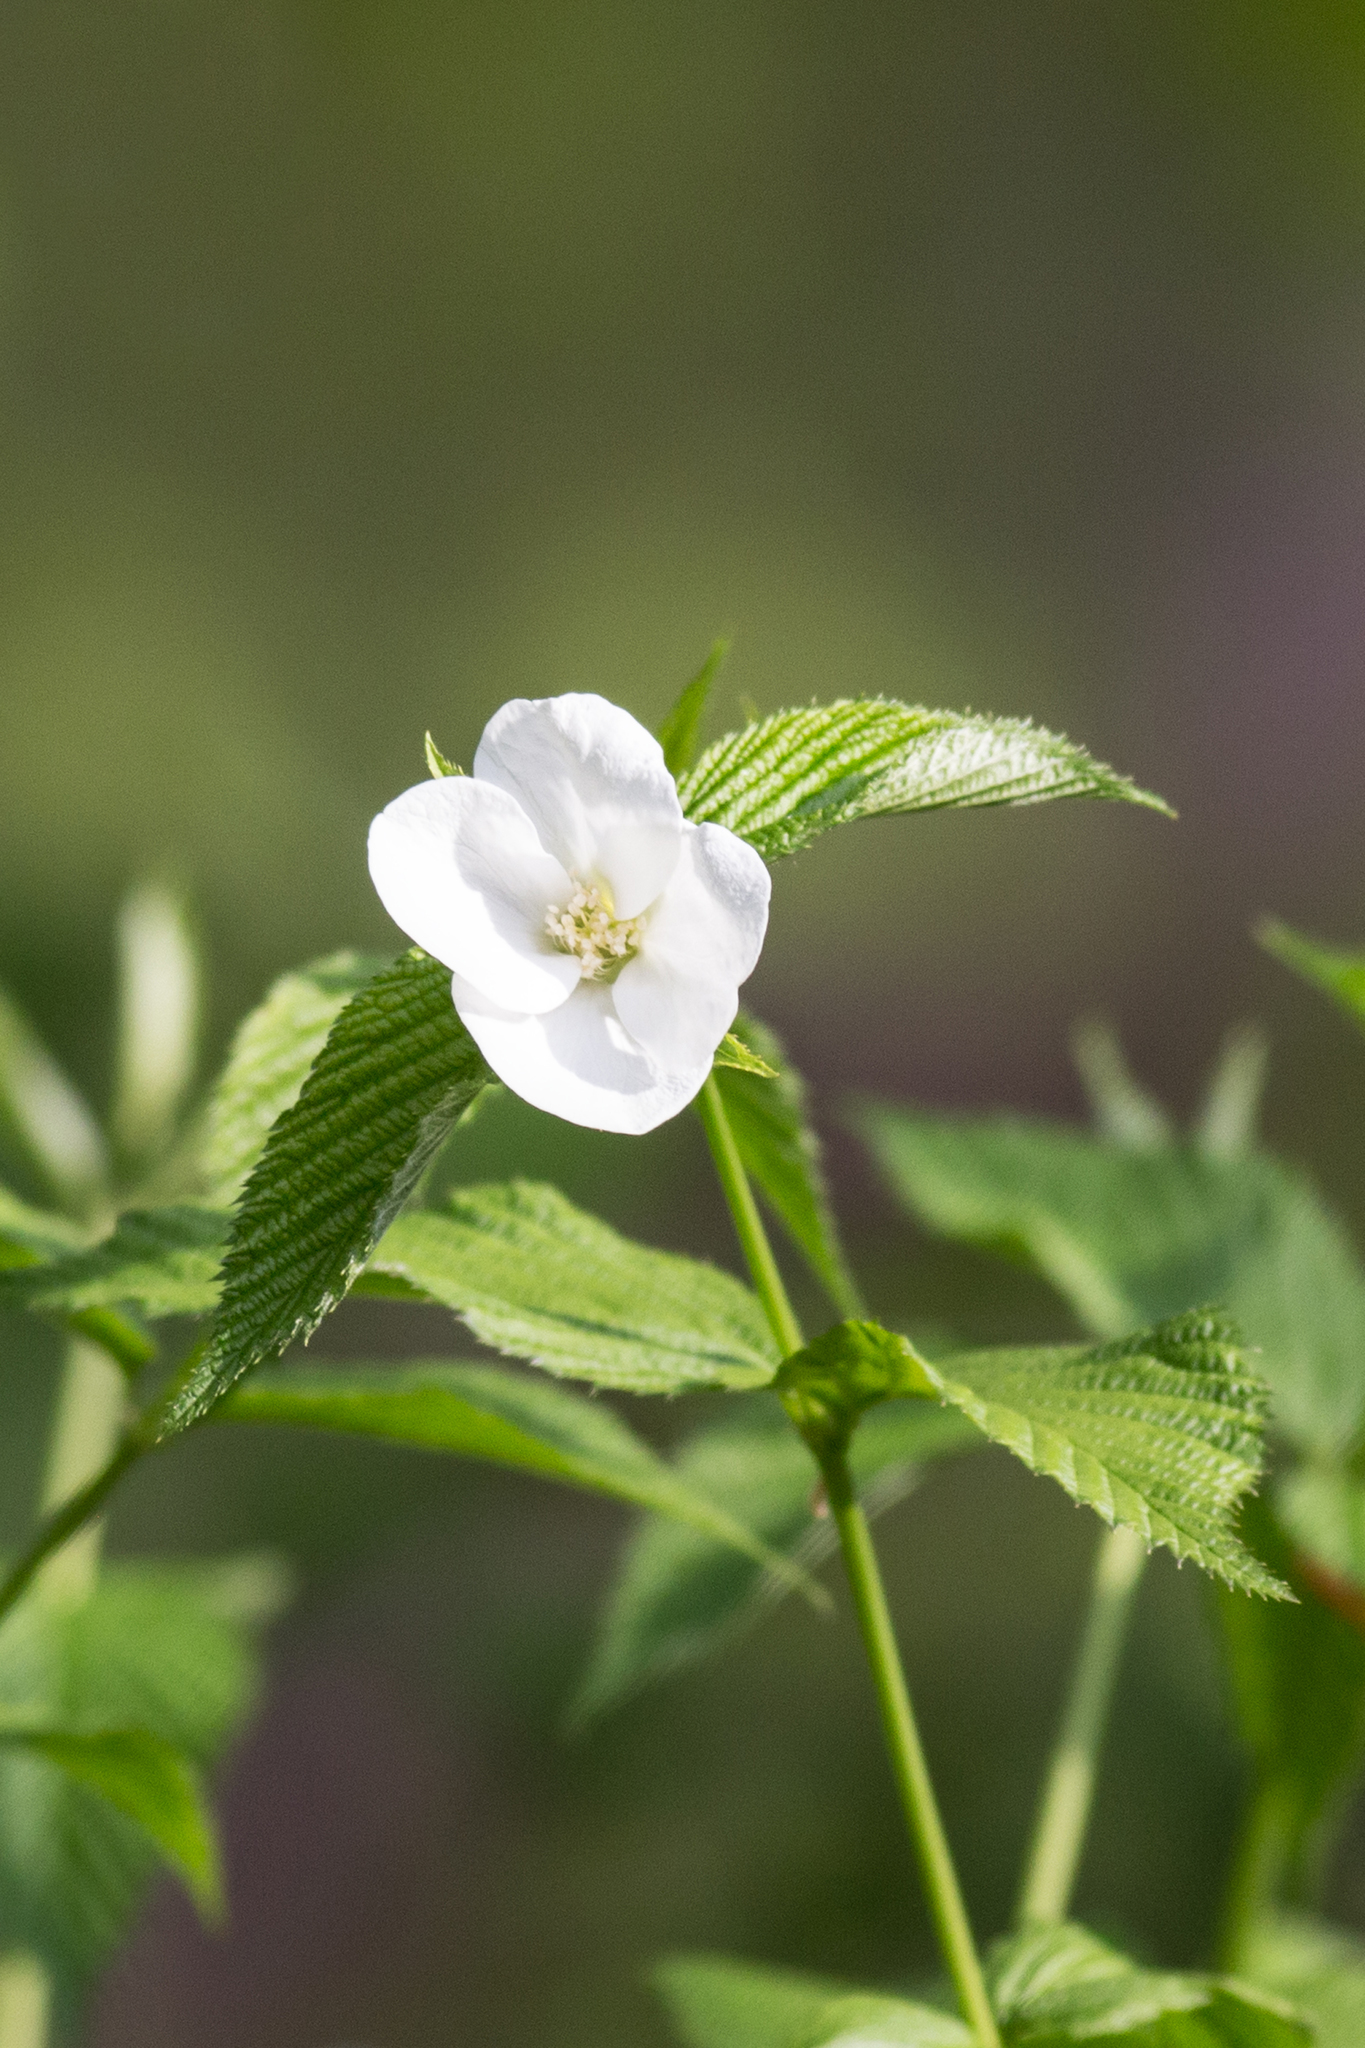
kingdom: Plantae
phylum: Tracheophyta
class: Magnoliopsida
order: Rosales
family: Rosaceae
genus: Rhodotypos
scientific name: Rhodotypos scandens
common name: Jetbead
